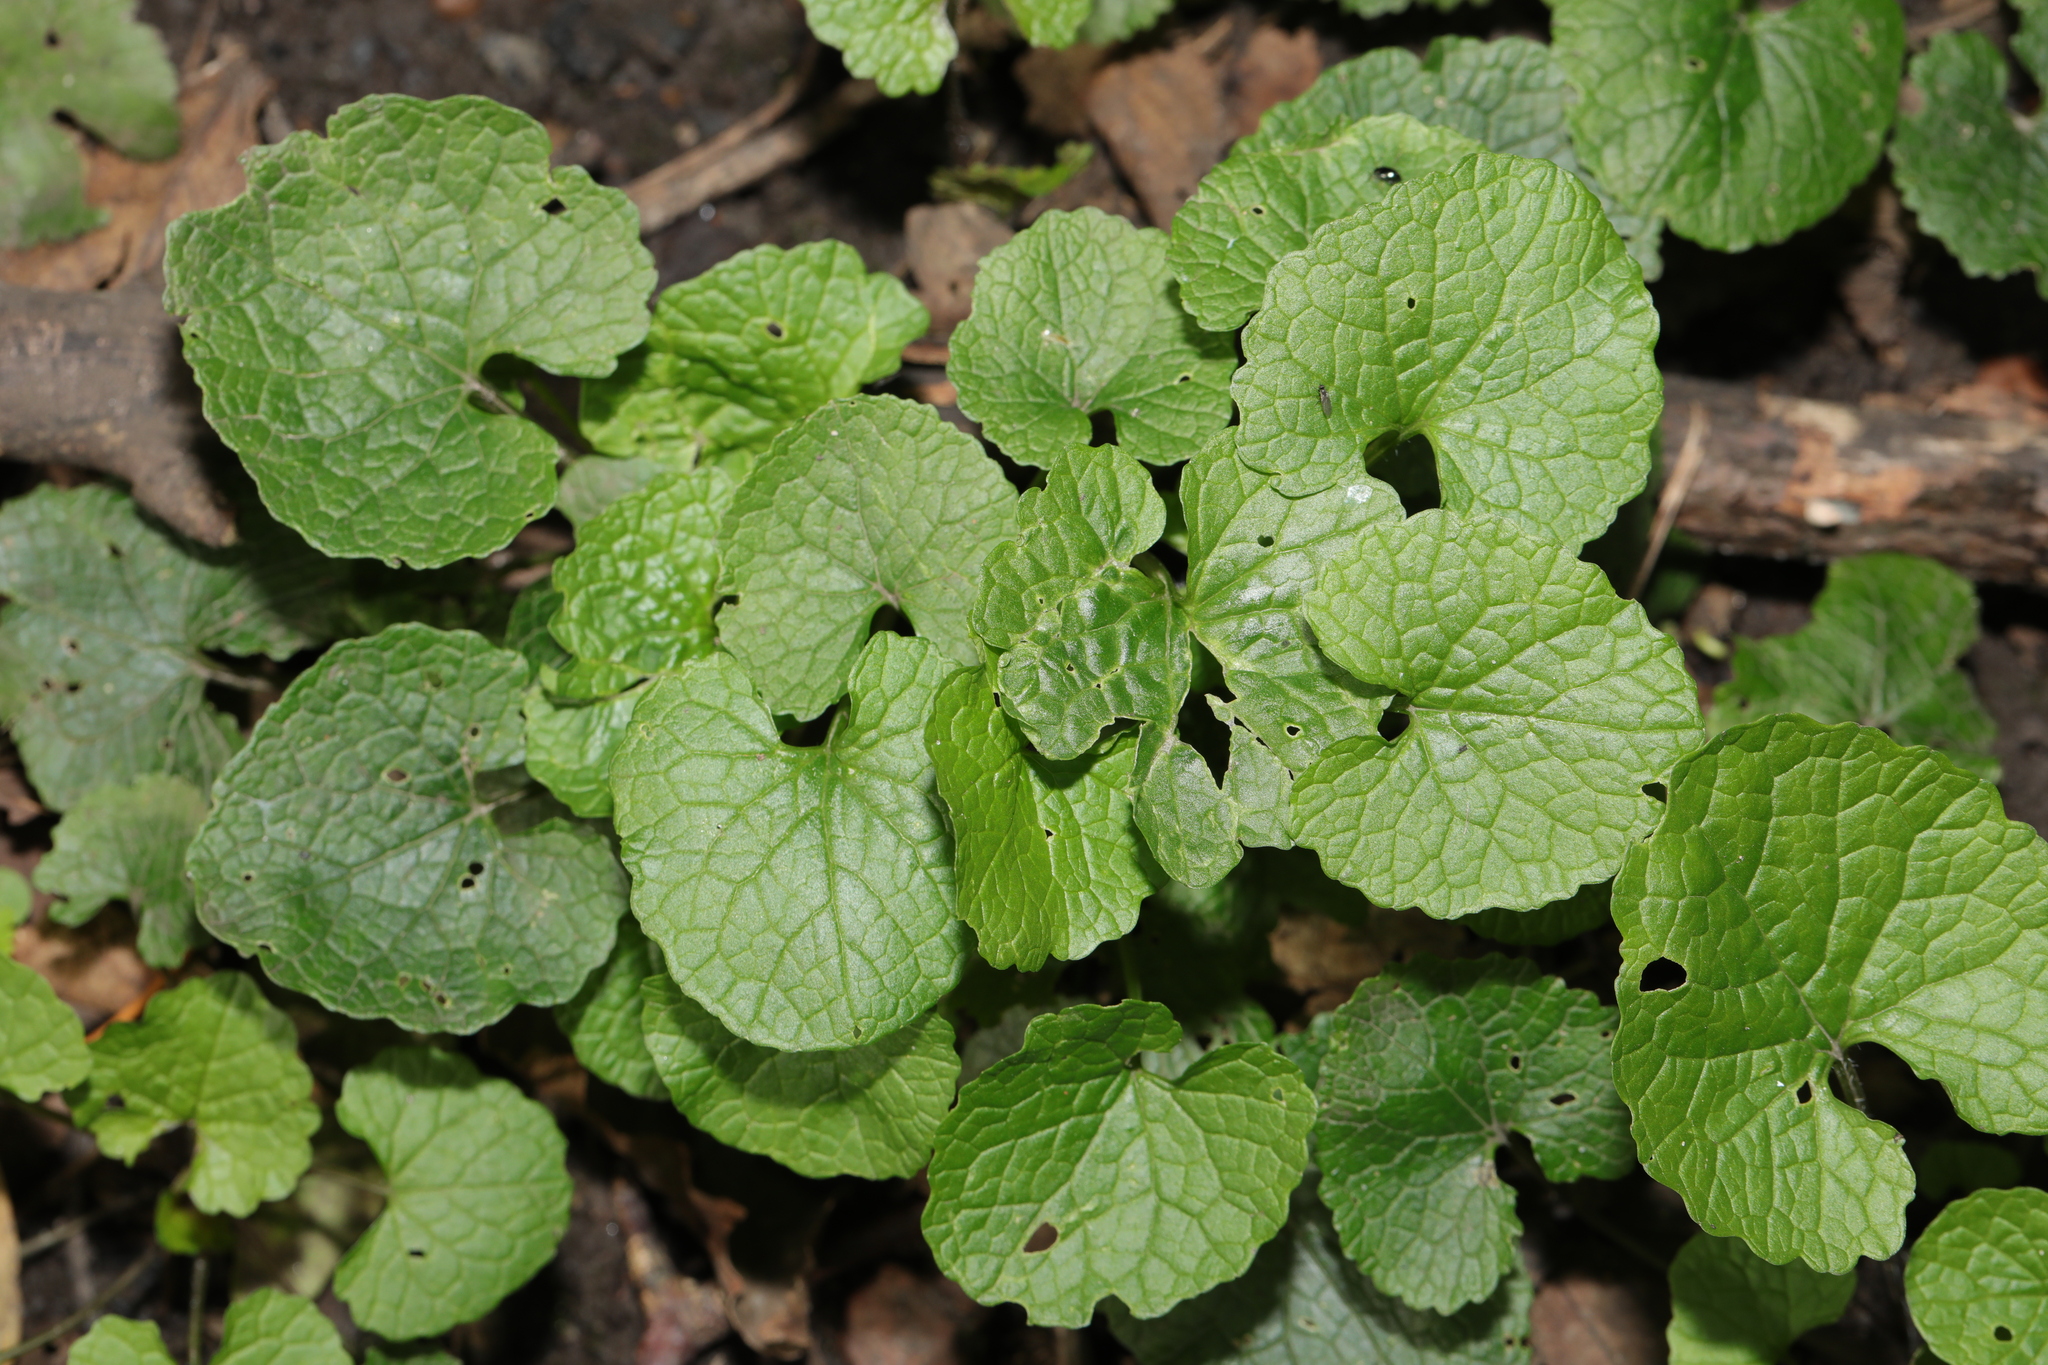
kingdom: Plantae
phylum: Tracheophyta
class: Magnoliopsida
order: Brassicales
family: Brassicaceae
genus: Alliaria
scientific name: Alliaria petiolata
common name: Garlic mustard
